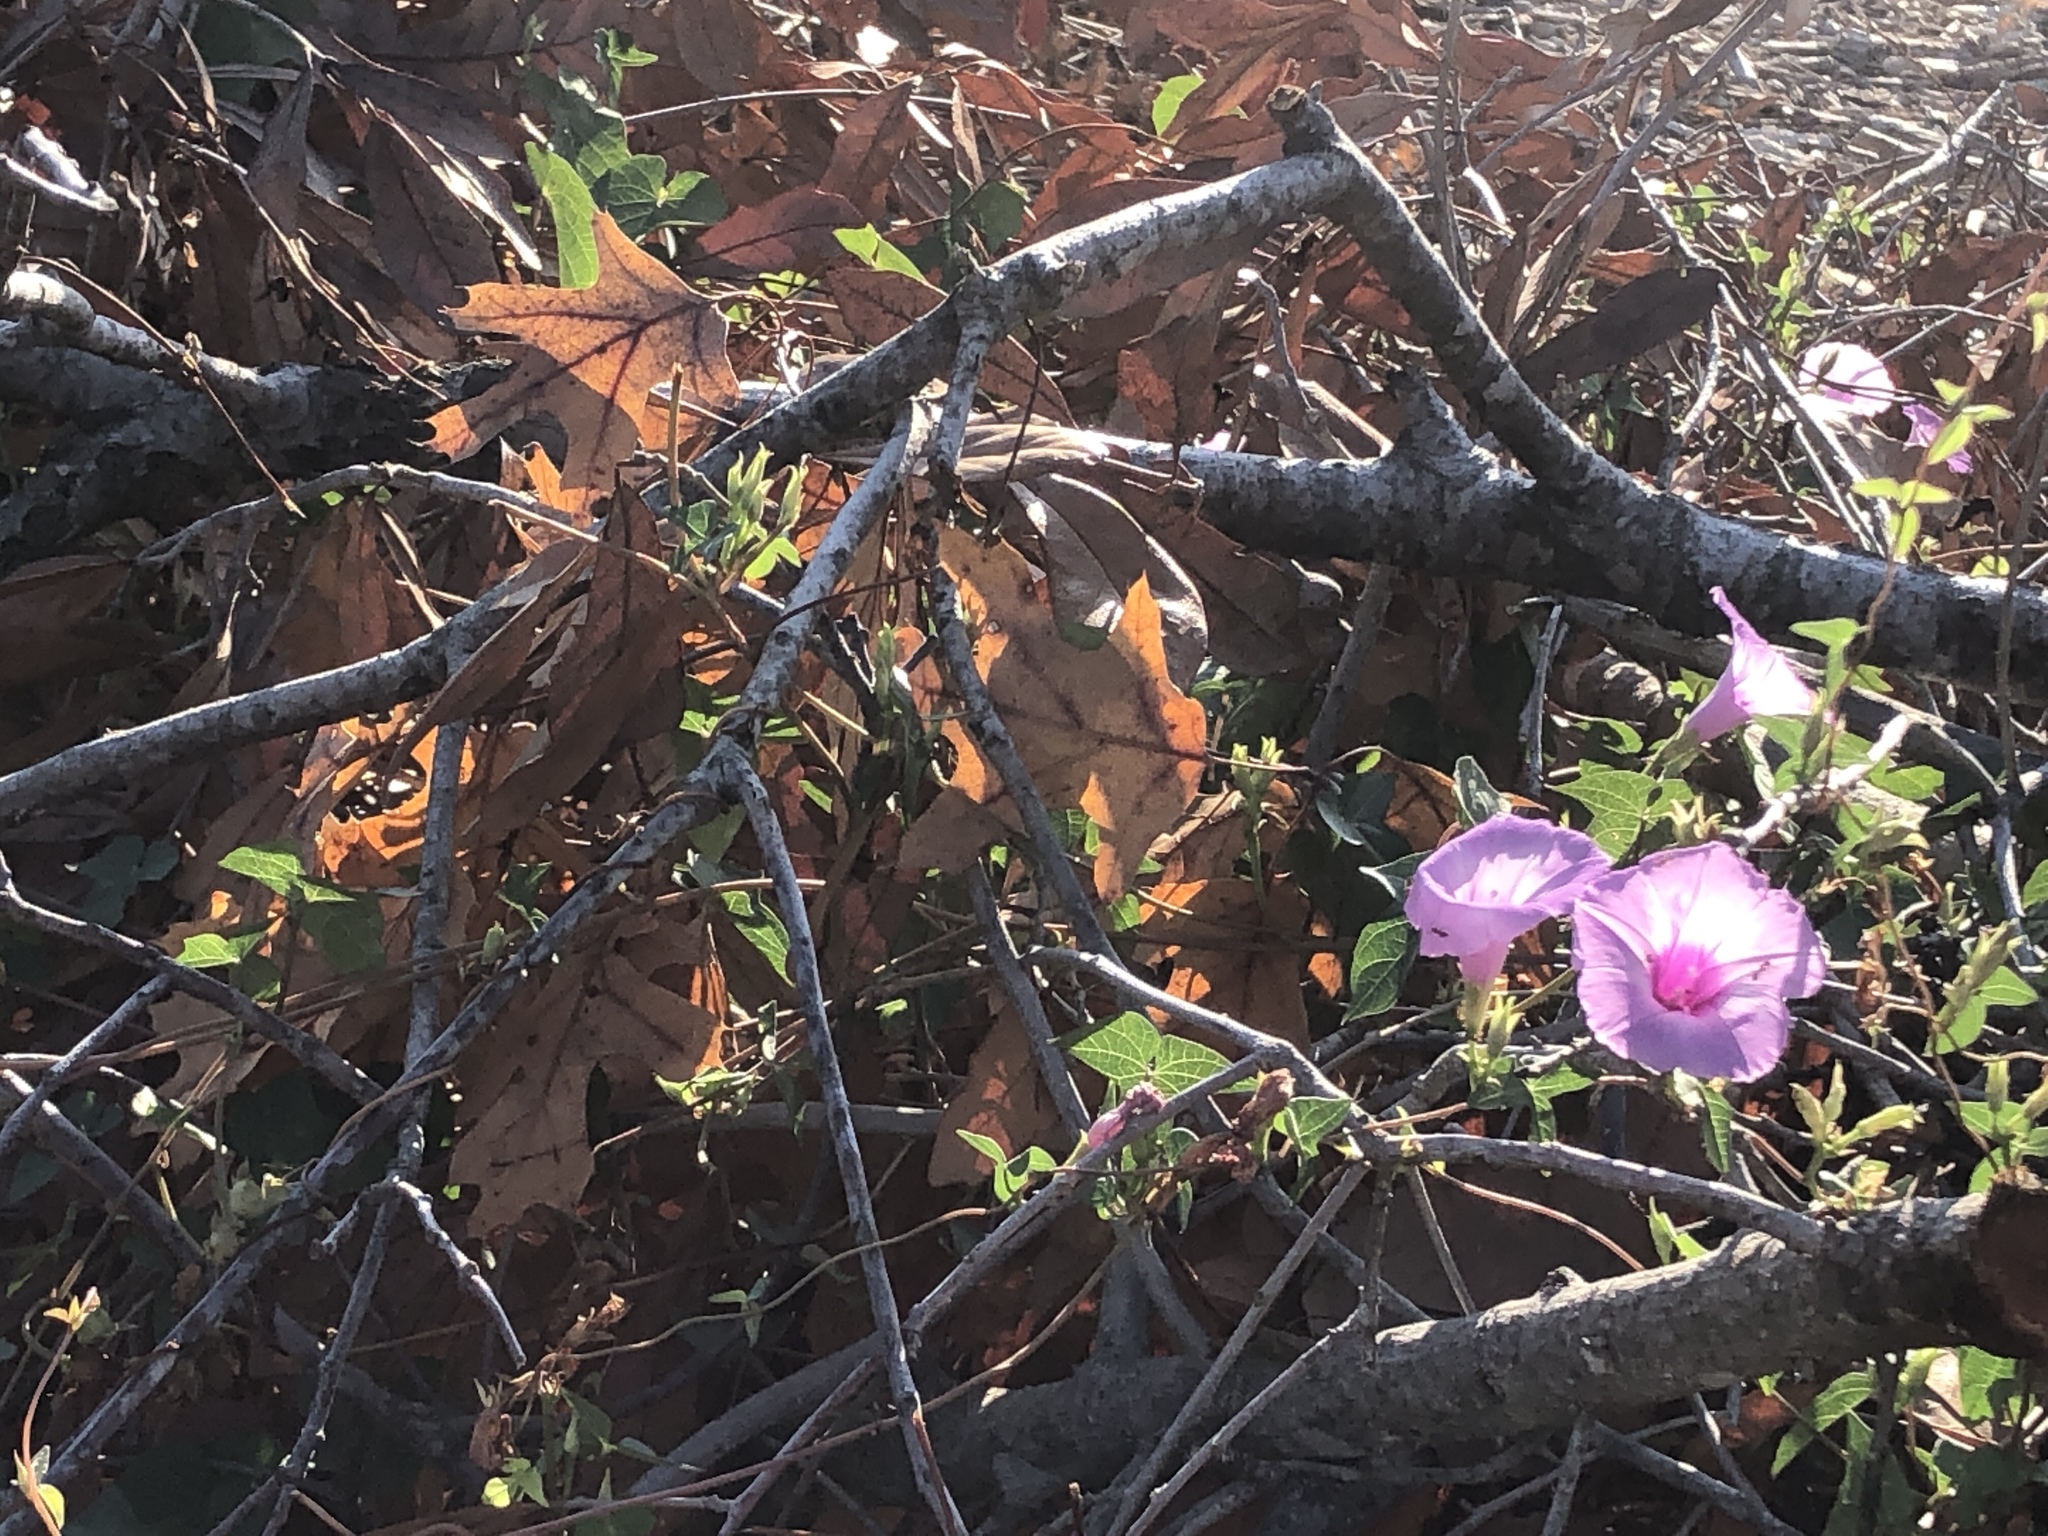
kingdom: Plantae
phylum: Tracheophyta
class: Magnoliopsida
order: Solanales
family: Convolvulaceae
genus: Ipomoea
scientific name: Ipomoea cordatotriloba
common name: Cotton morning glory
